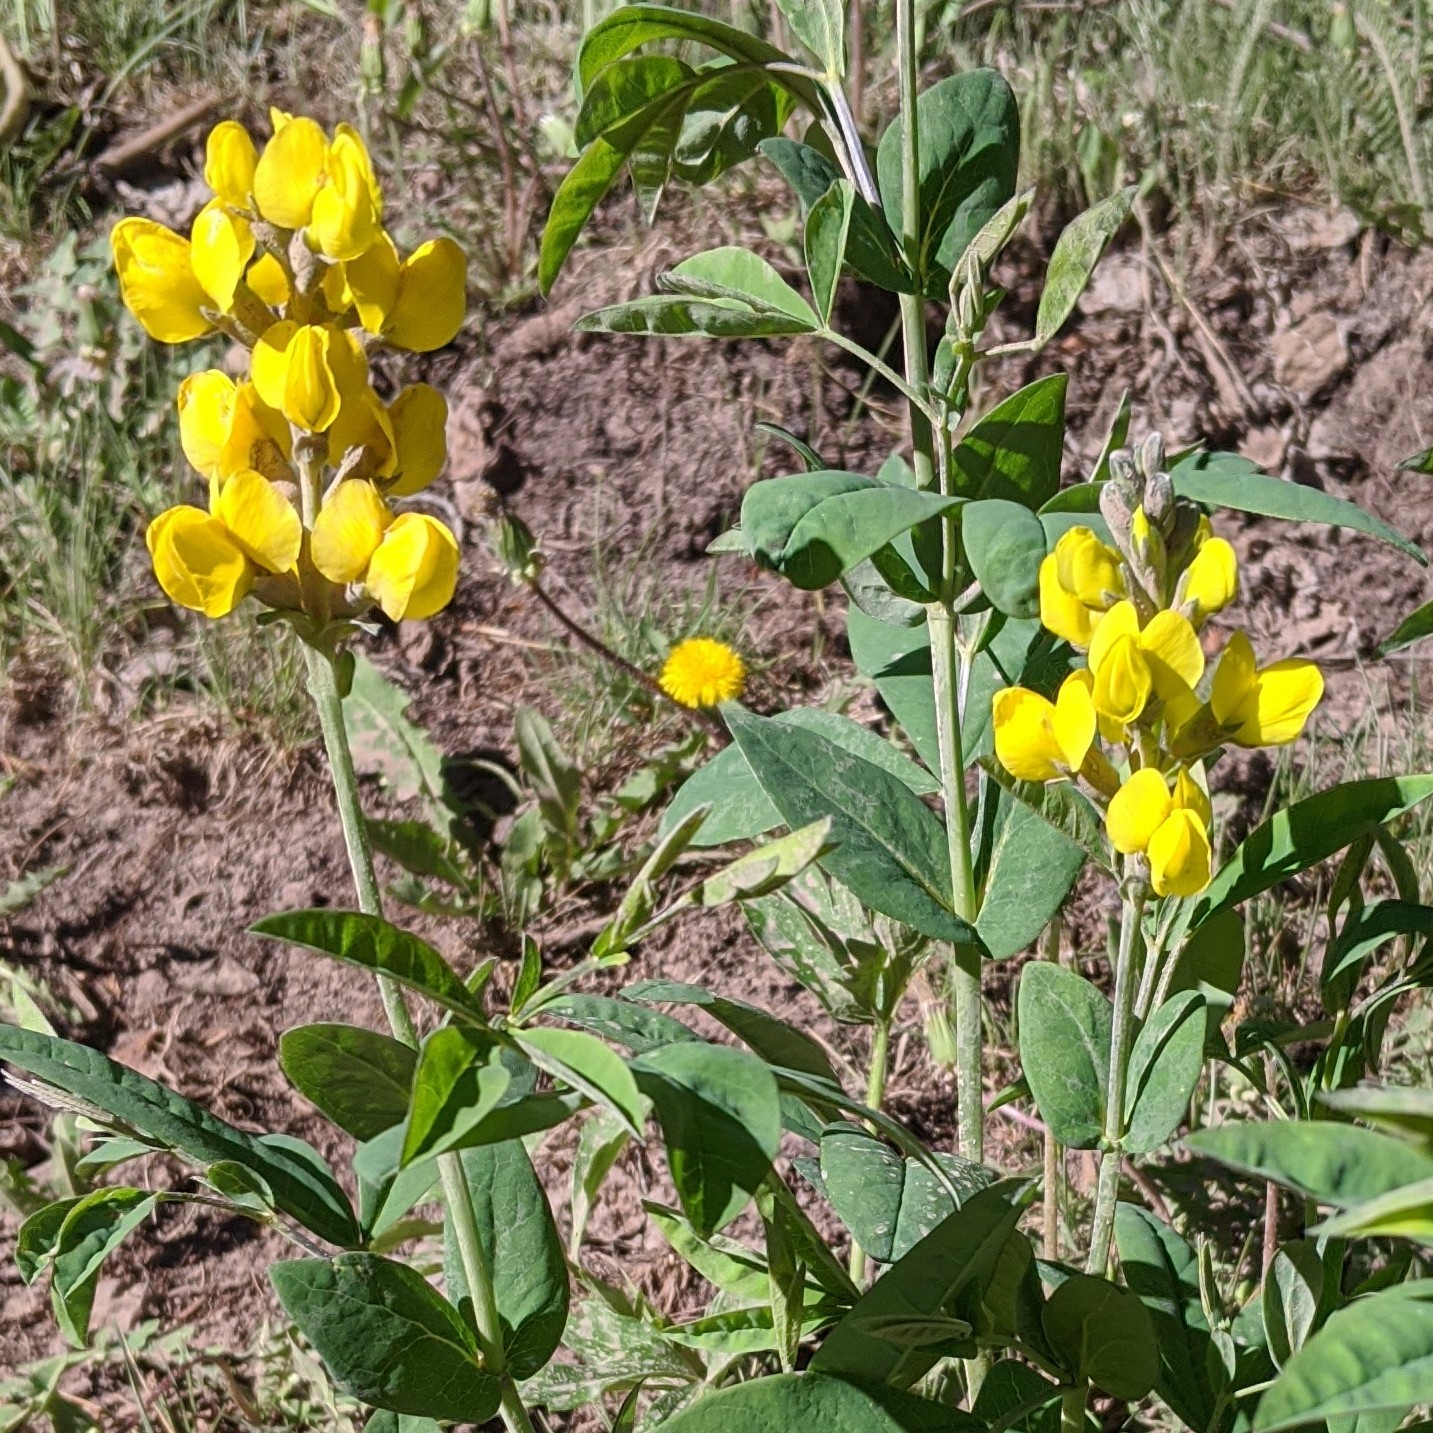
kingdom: Plantae
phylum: Tracheophyta
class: Magnoliopsida
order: Fabales
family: Fabaceae
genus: Thermopsis
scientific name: Thermopsis montana
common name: False lupin
